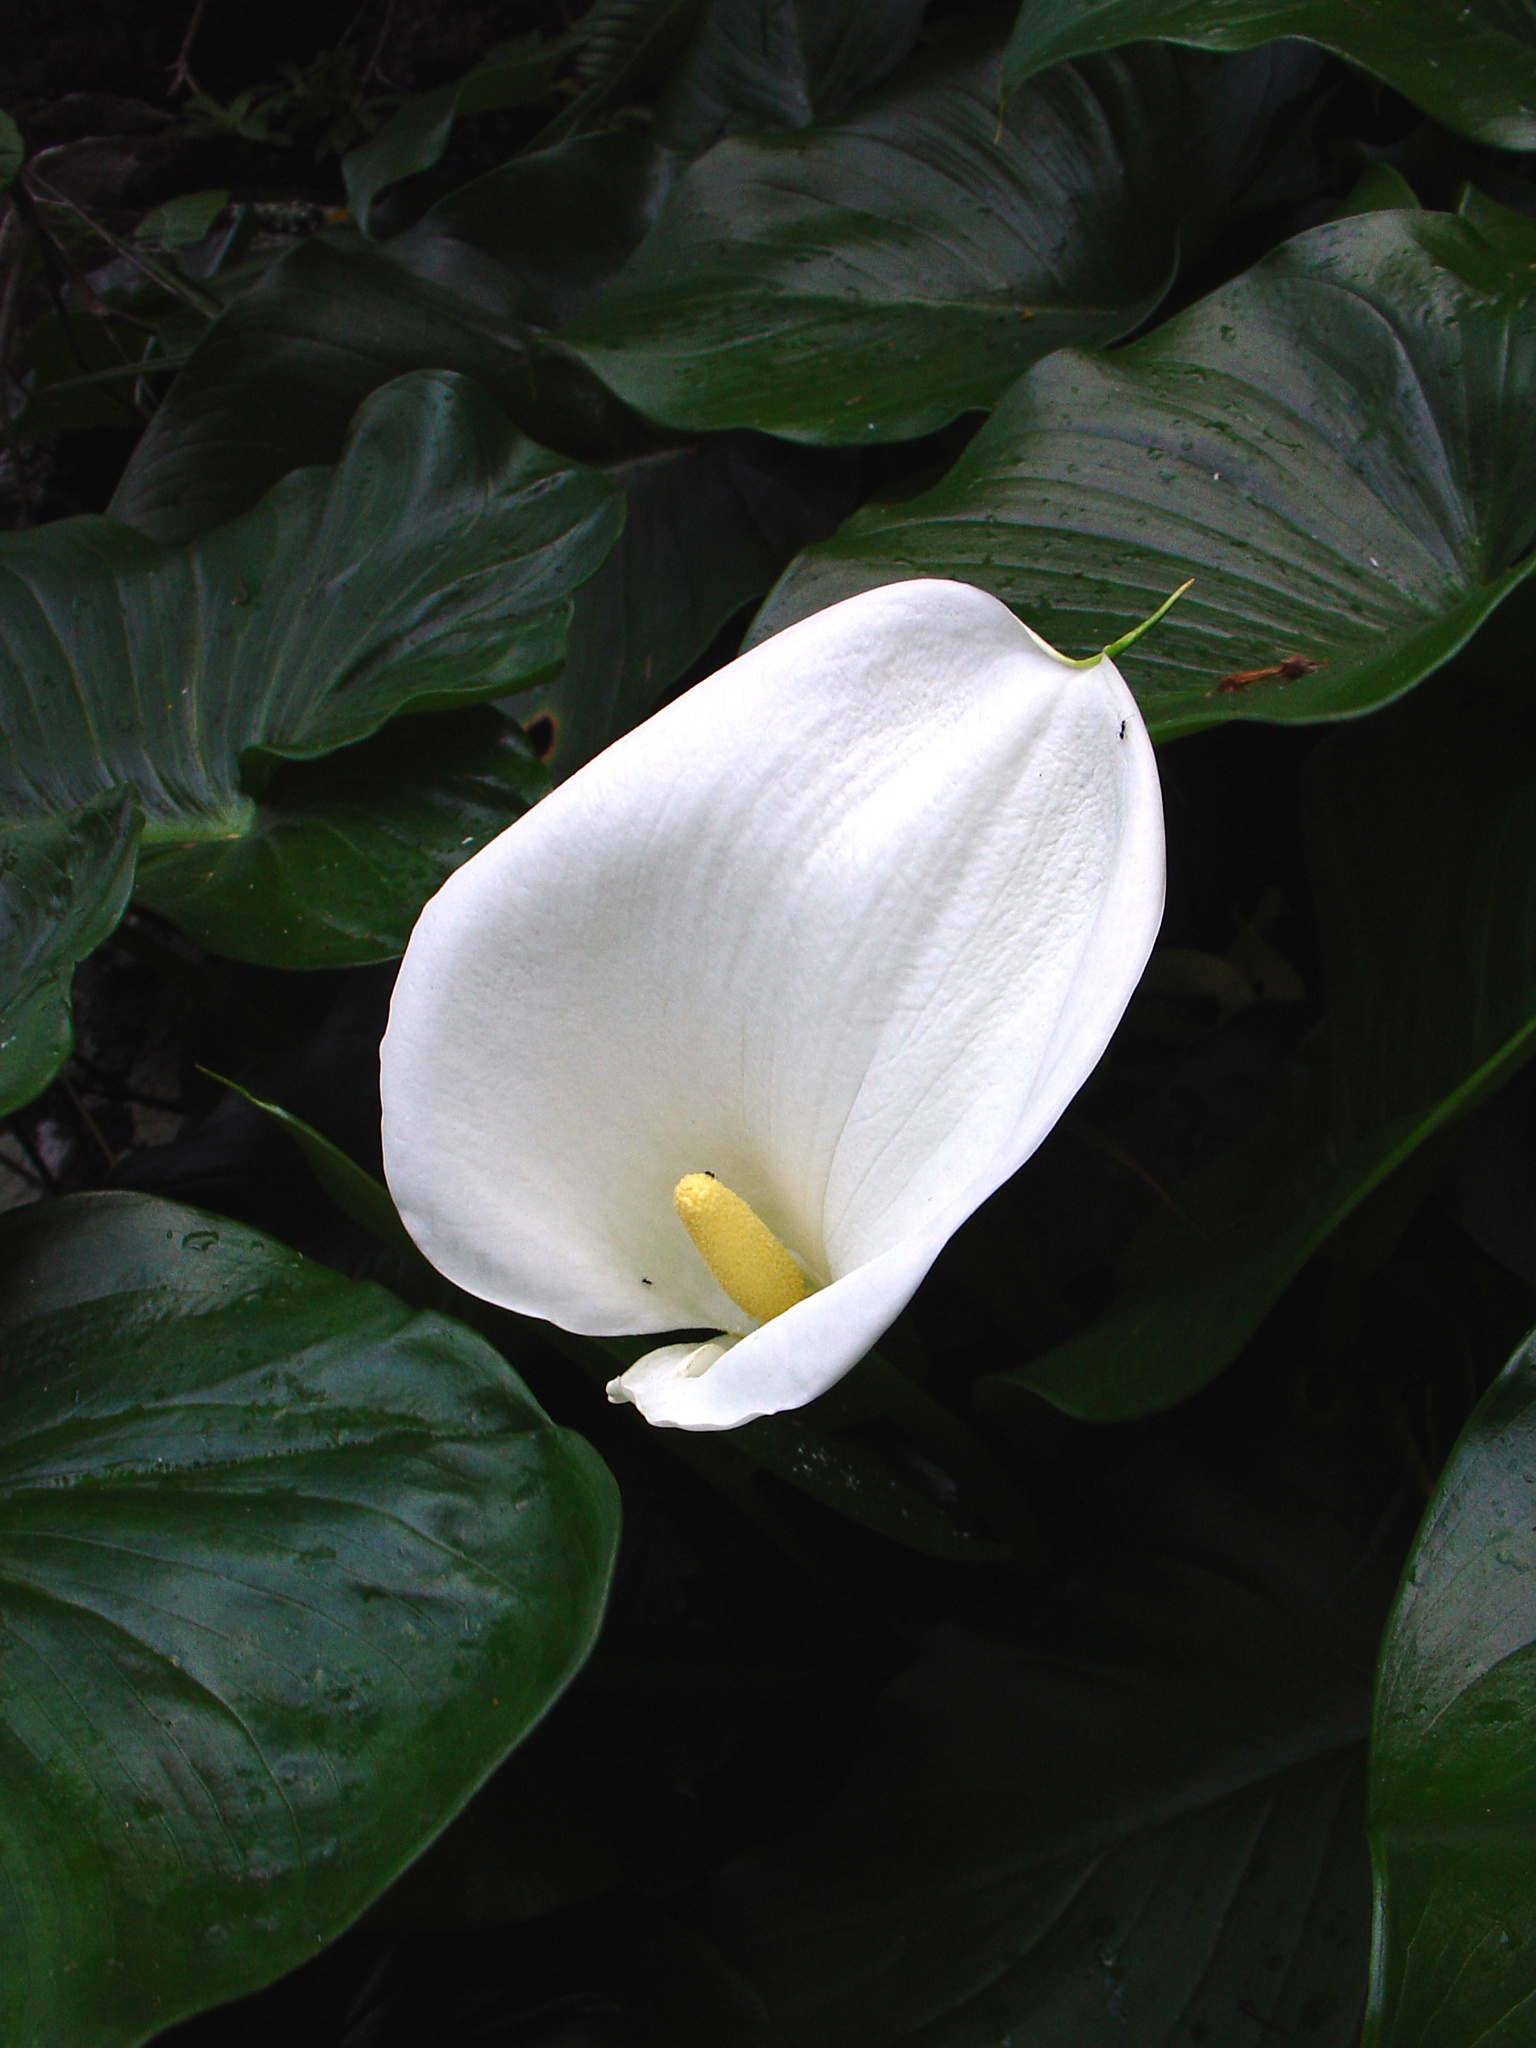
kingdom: Plantae
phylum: Tracheophyta
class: Liliopsida
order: Alismatales
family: Araceae
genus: Zantedeschia
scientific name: Zantedeschia aethiopica
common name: Altar-lily
